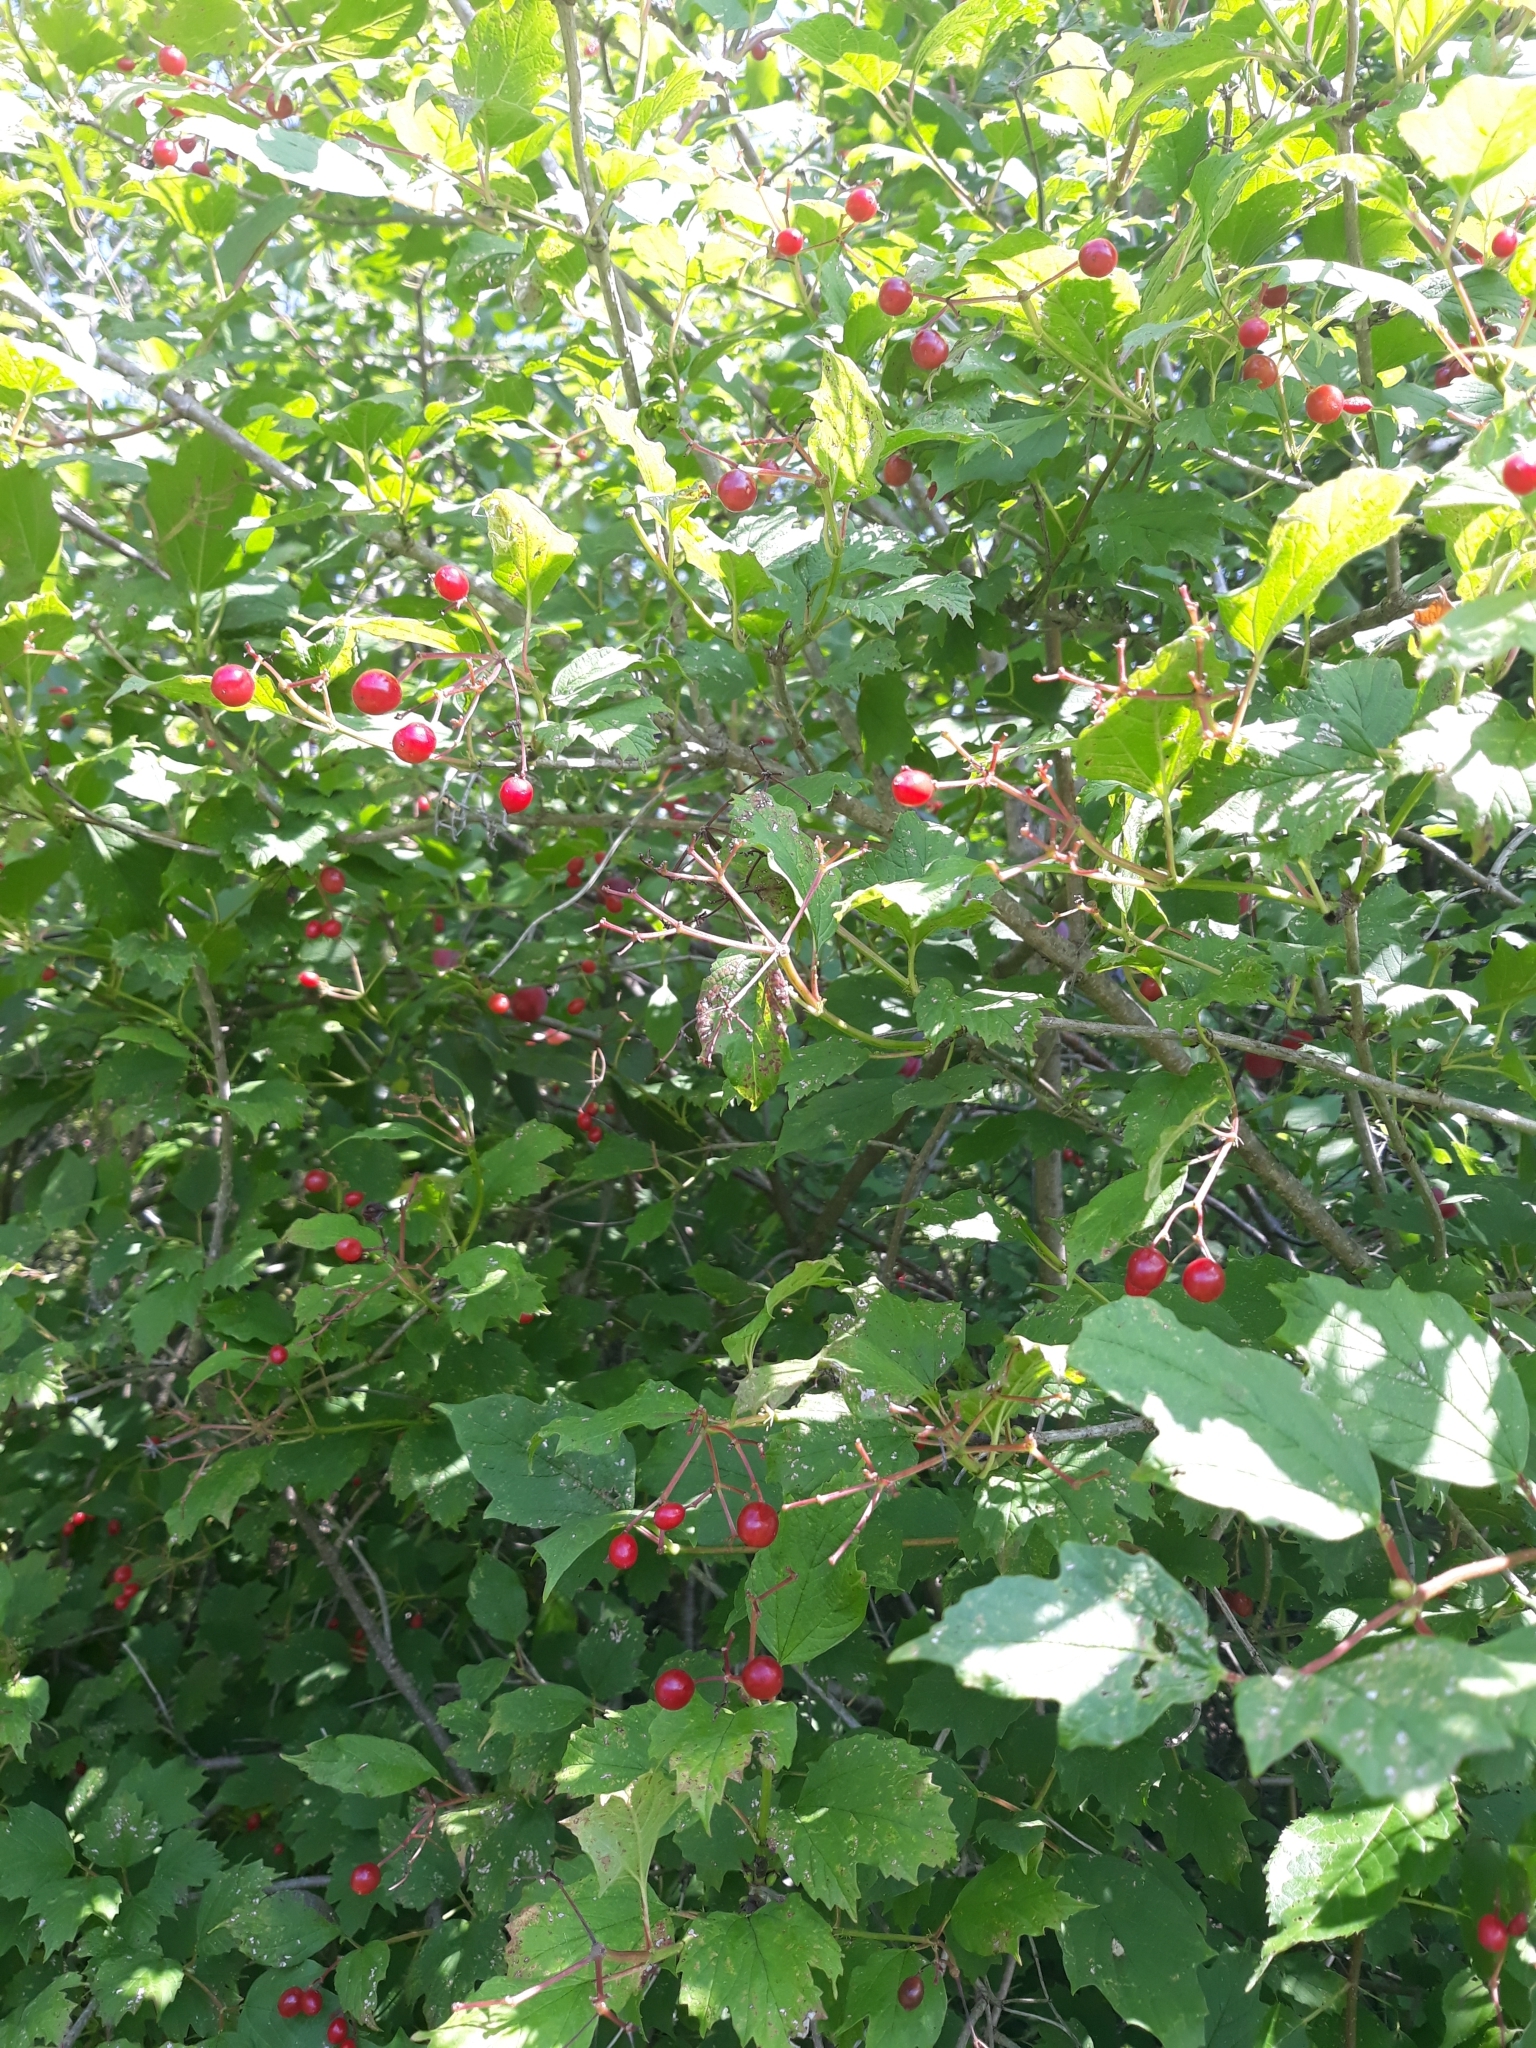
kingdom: Plantae
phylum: Tracheophyta
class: Magnoliopsida
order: Dipsacales
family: Viburnaceae
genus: Viburnum
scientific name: Viburnum opulus
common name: Guelder-rose
